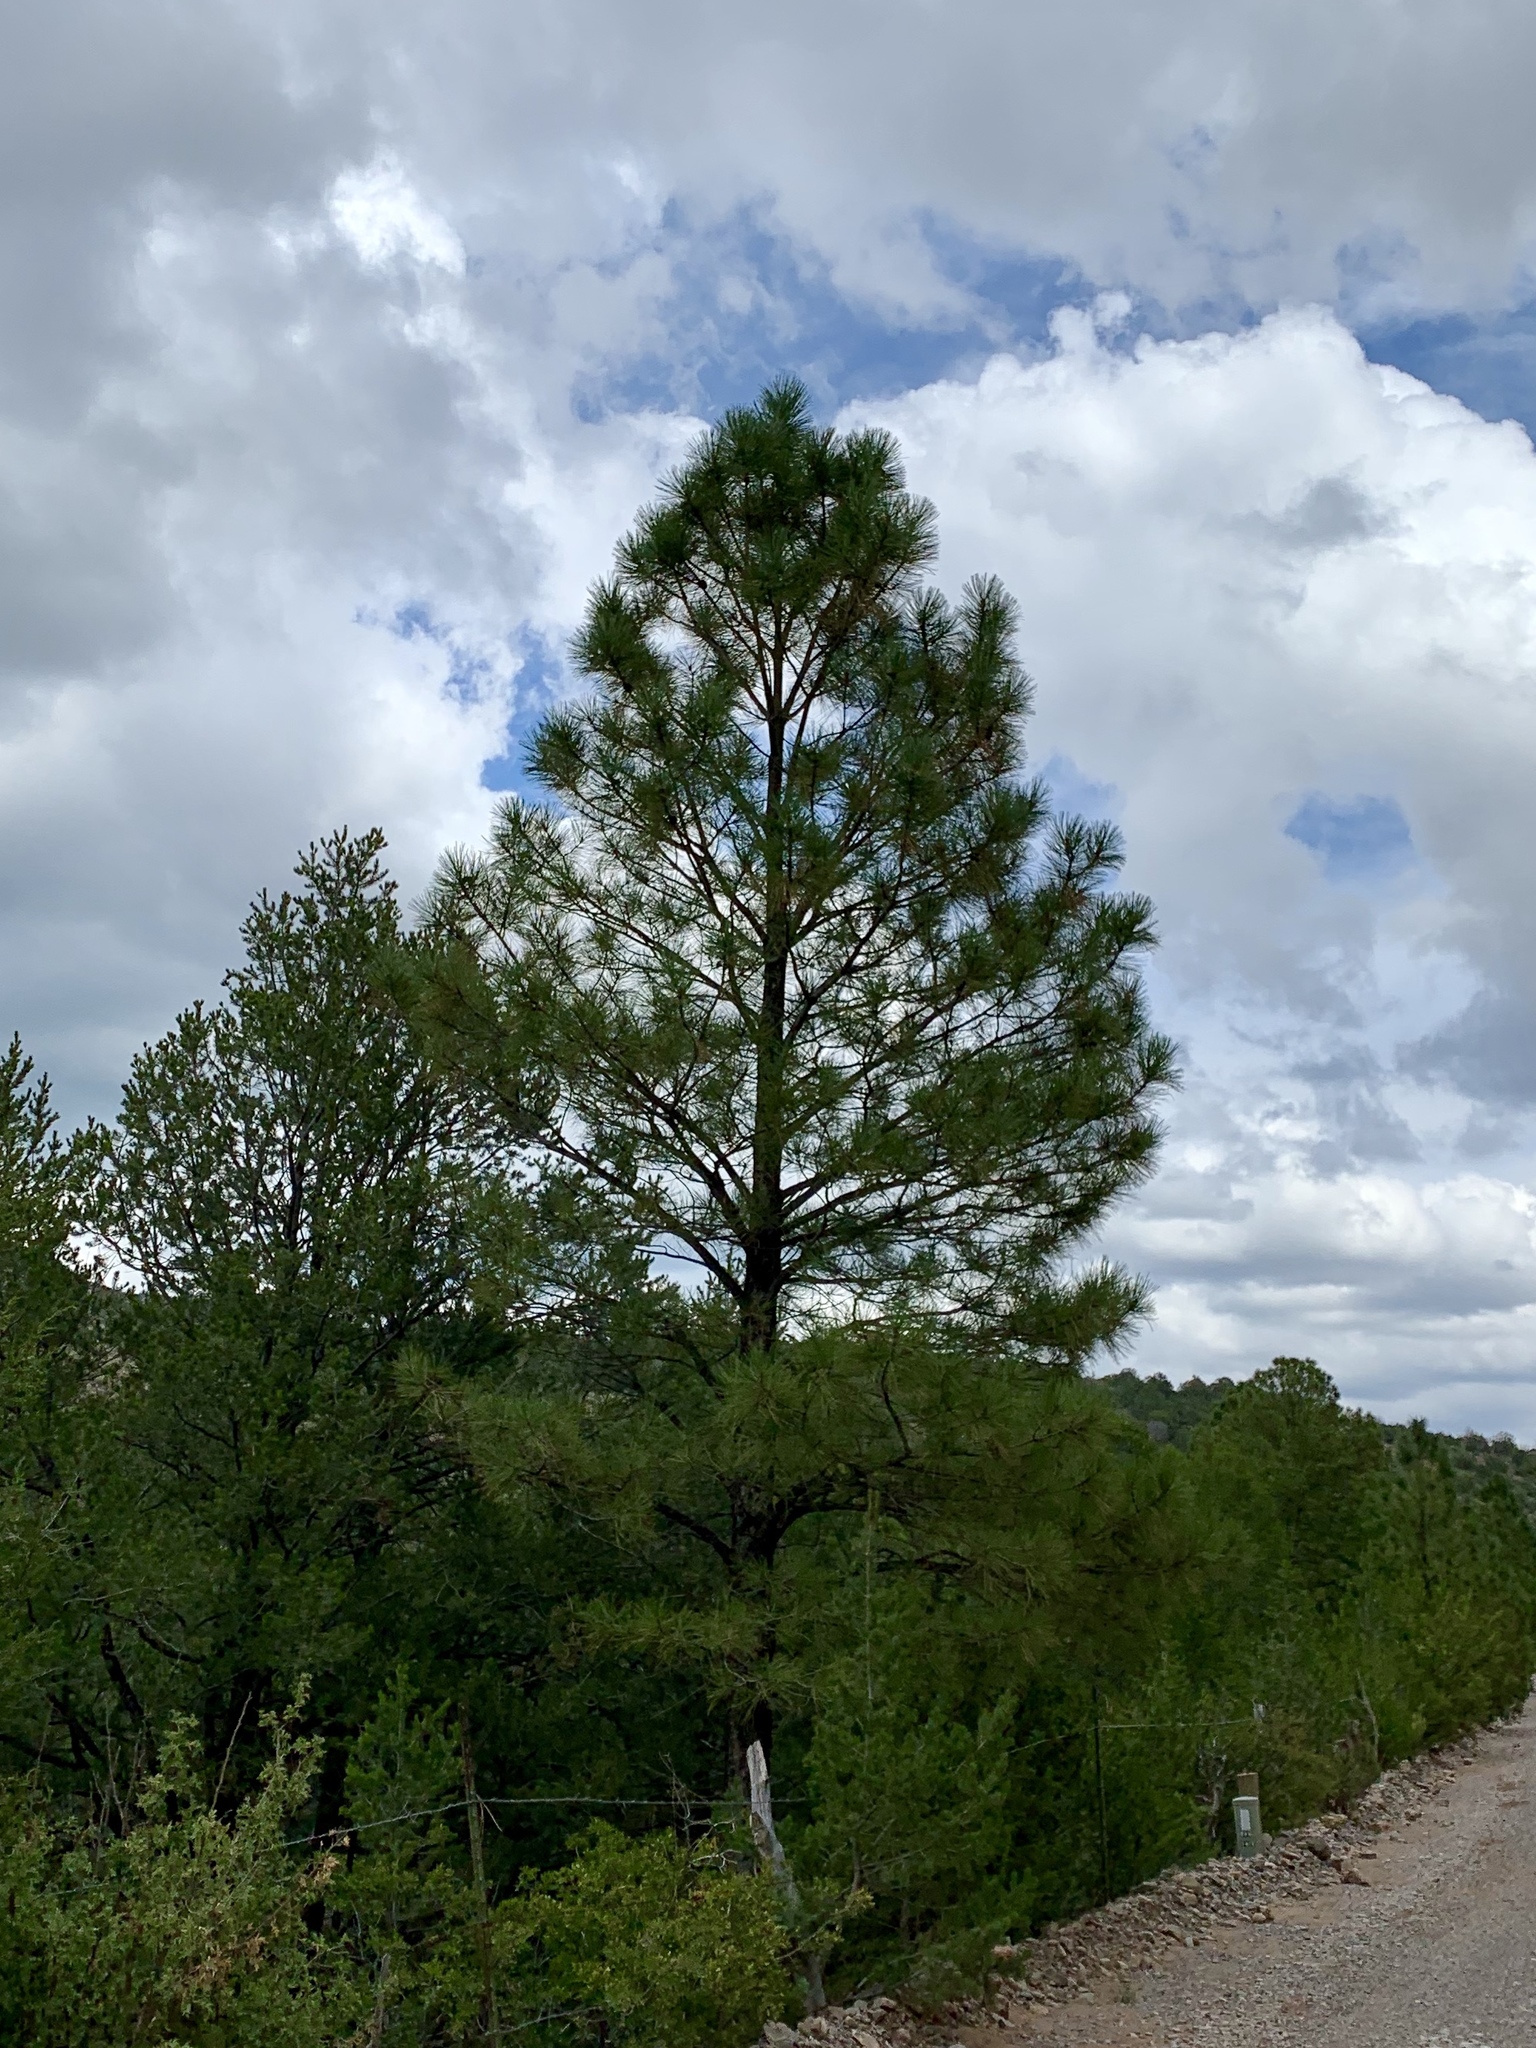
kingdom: Plantae
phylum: Tracheophyta
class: Pinopsida
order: Pinales
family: Pinaceae
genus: Pinus
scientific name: Pinus ponderosa
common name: Western yellow-pine
